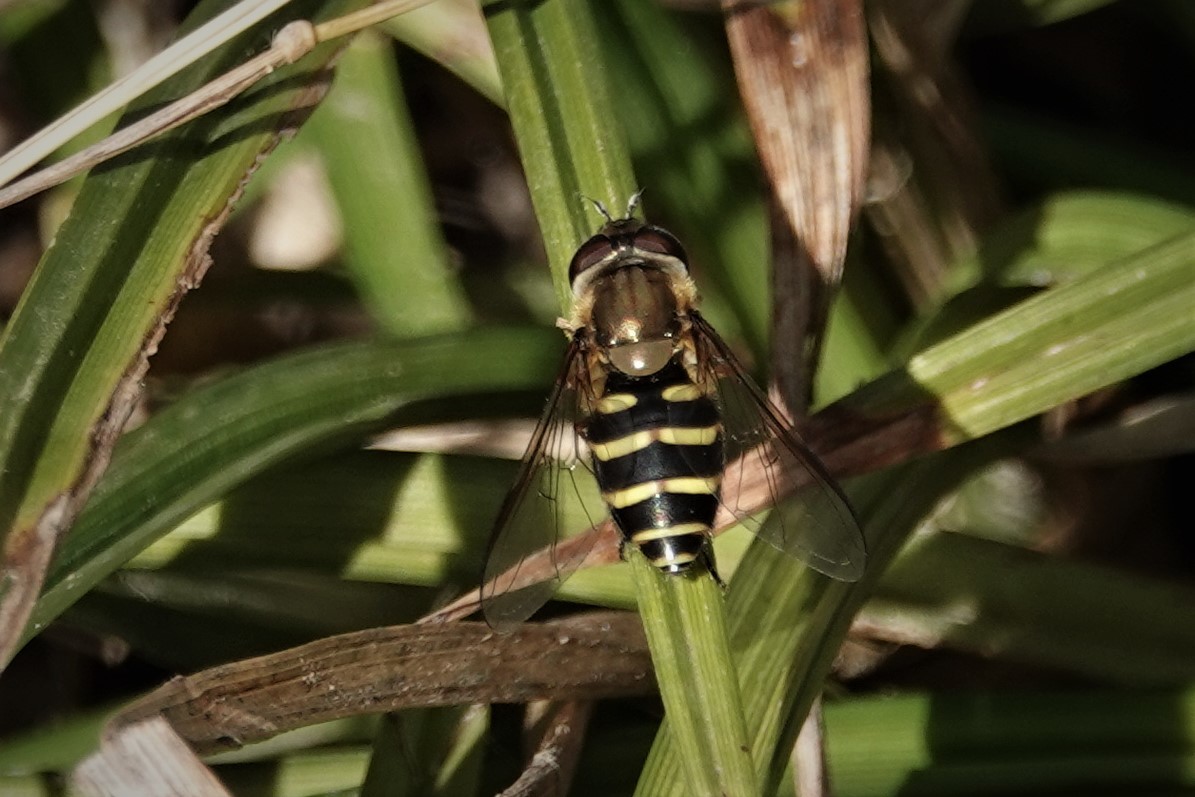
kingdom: Animalia
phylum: Arthropoda
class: Insecta
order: Diptera
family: Syrphidae
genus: Syrphus
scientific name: Syrphus
